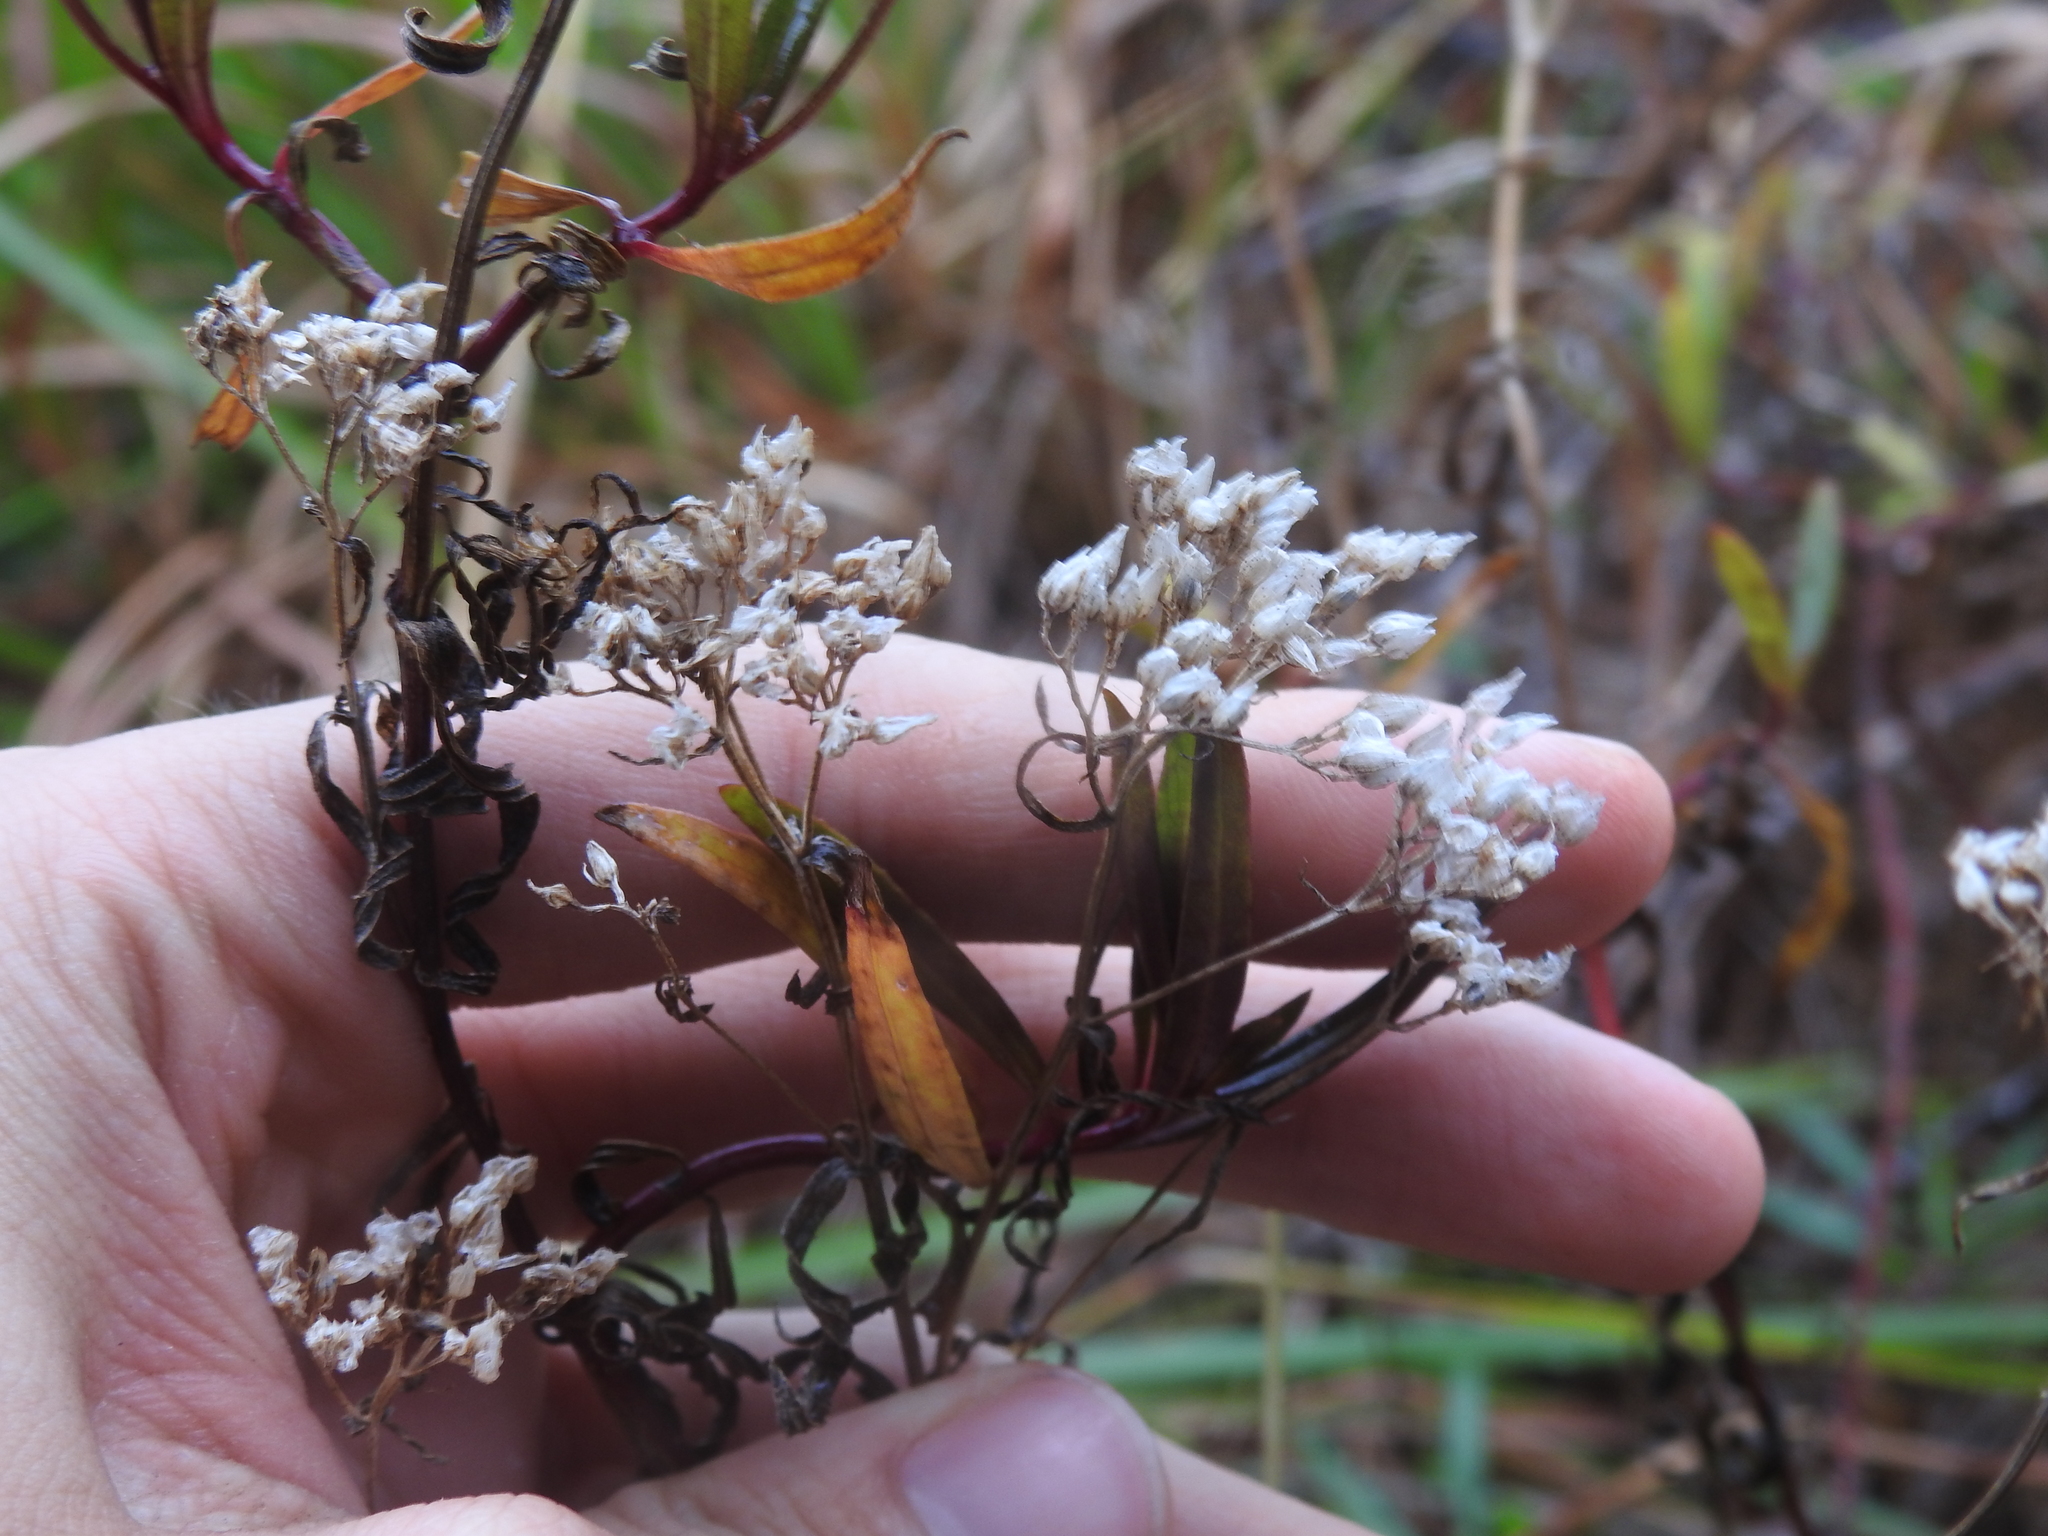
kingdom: Plantae
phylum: Tracheophyta
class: Magnoliopsida
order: Asterales
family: Asteraceae
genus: Flaveria
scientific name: Flaveria linearis
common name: Yellowtop
